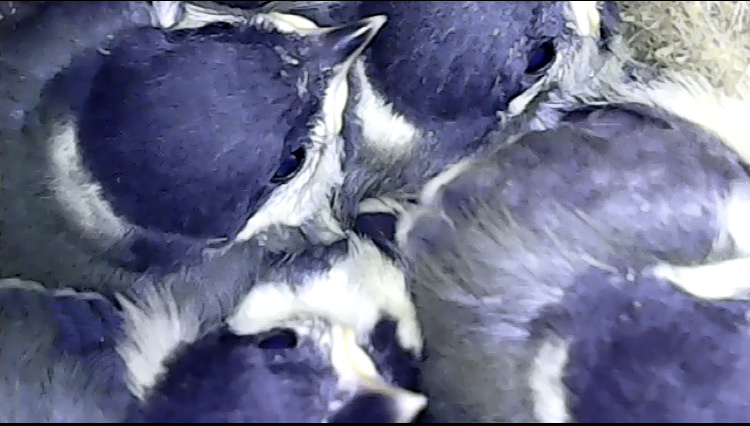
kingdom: Animalia
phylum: Chordata
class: Aves
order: Passeriformes
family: Paridae
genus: Parus
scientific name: Parus major
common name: Great tit
